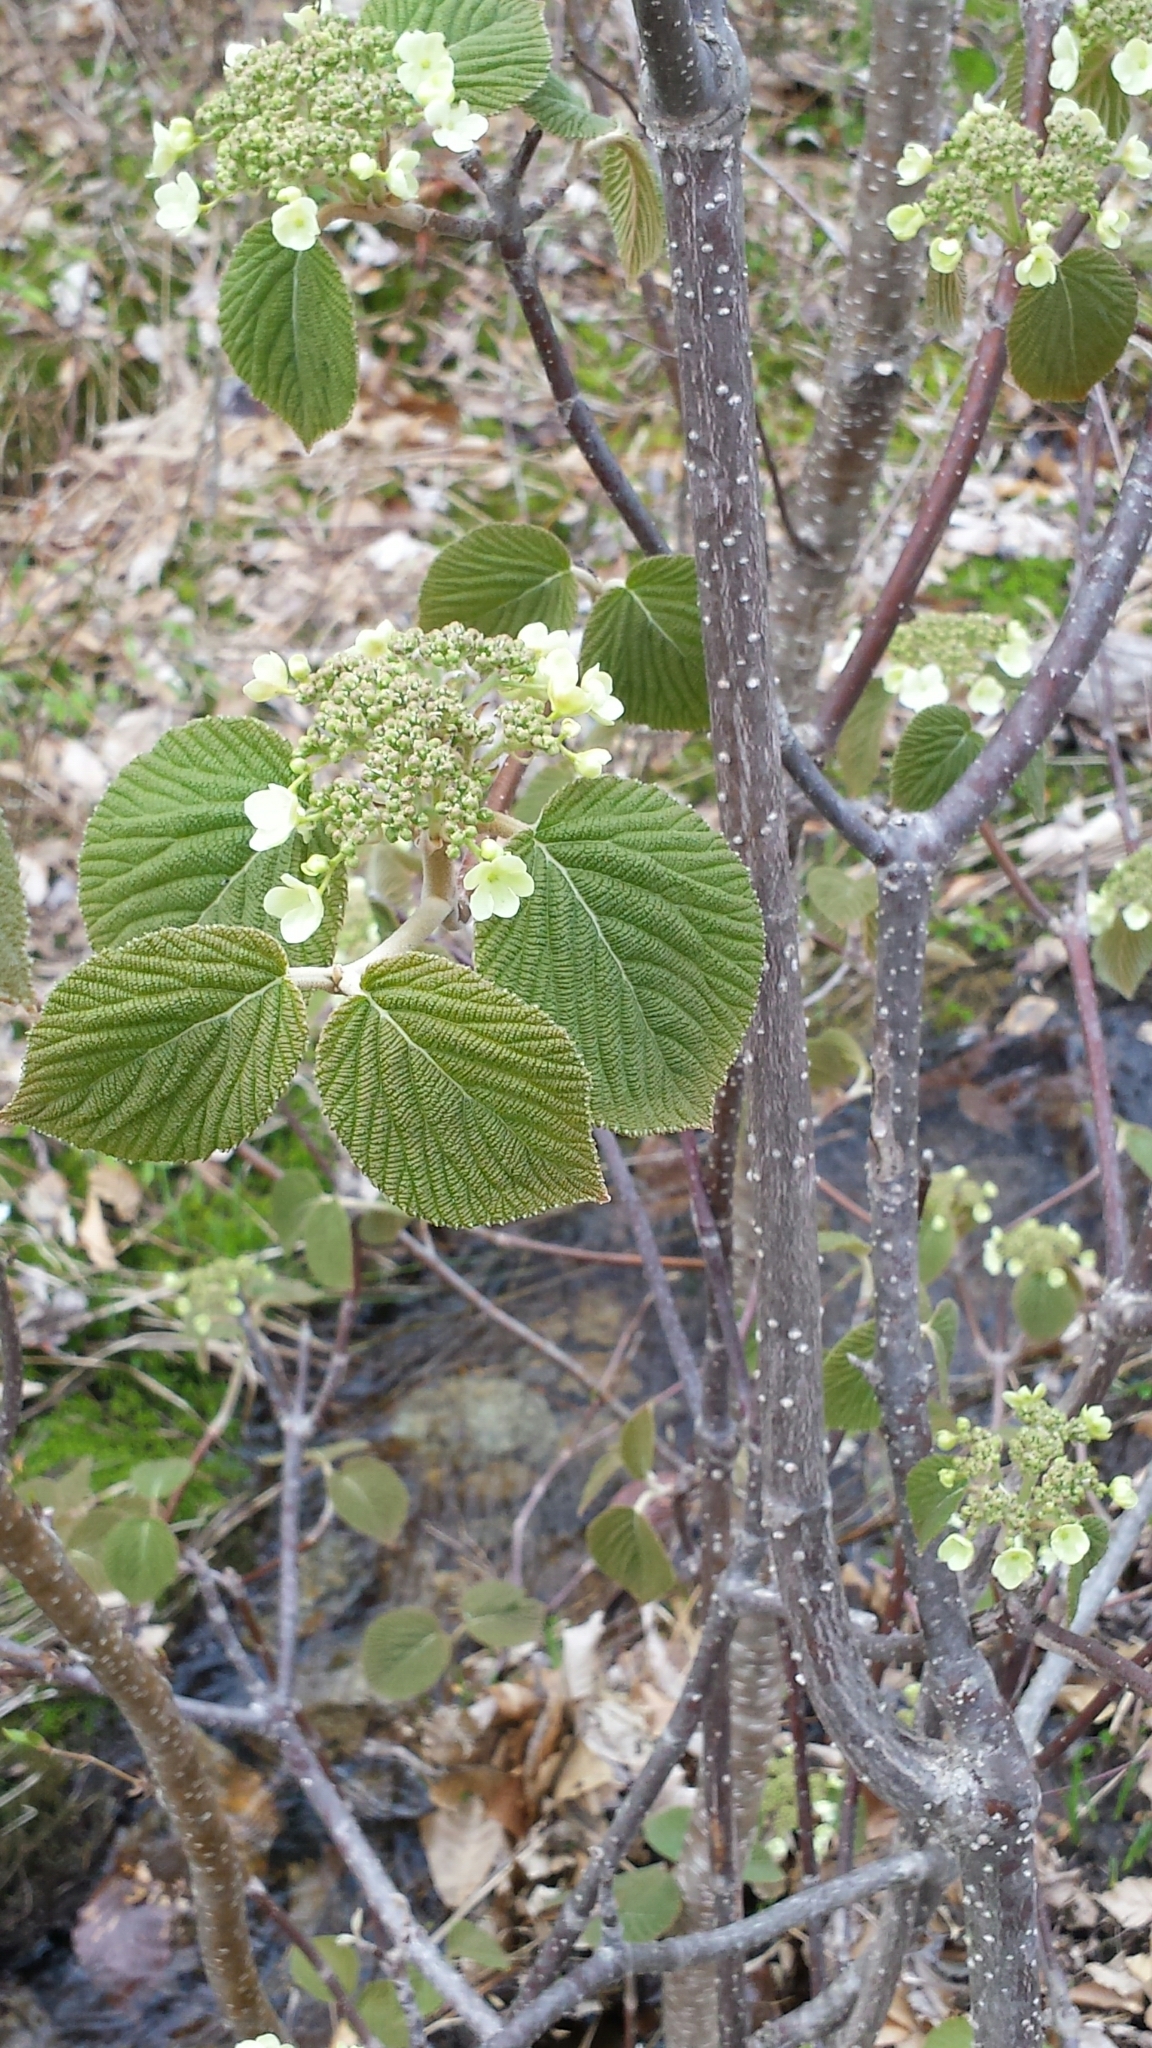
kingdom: Plantae
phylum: Tracheophyta
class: Magnoliopsida
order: Dipsacales
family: Viburnaceae
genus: Viburnum
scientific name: Viburnum lantanoides
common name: Hobblebush
